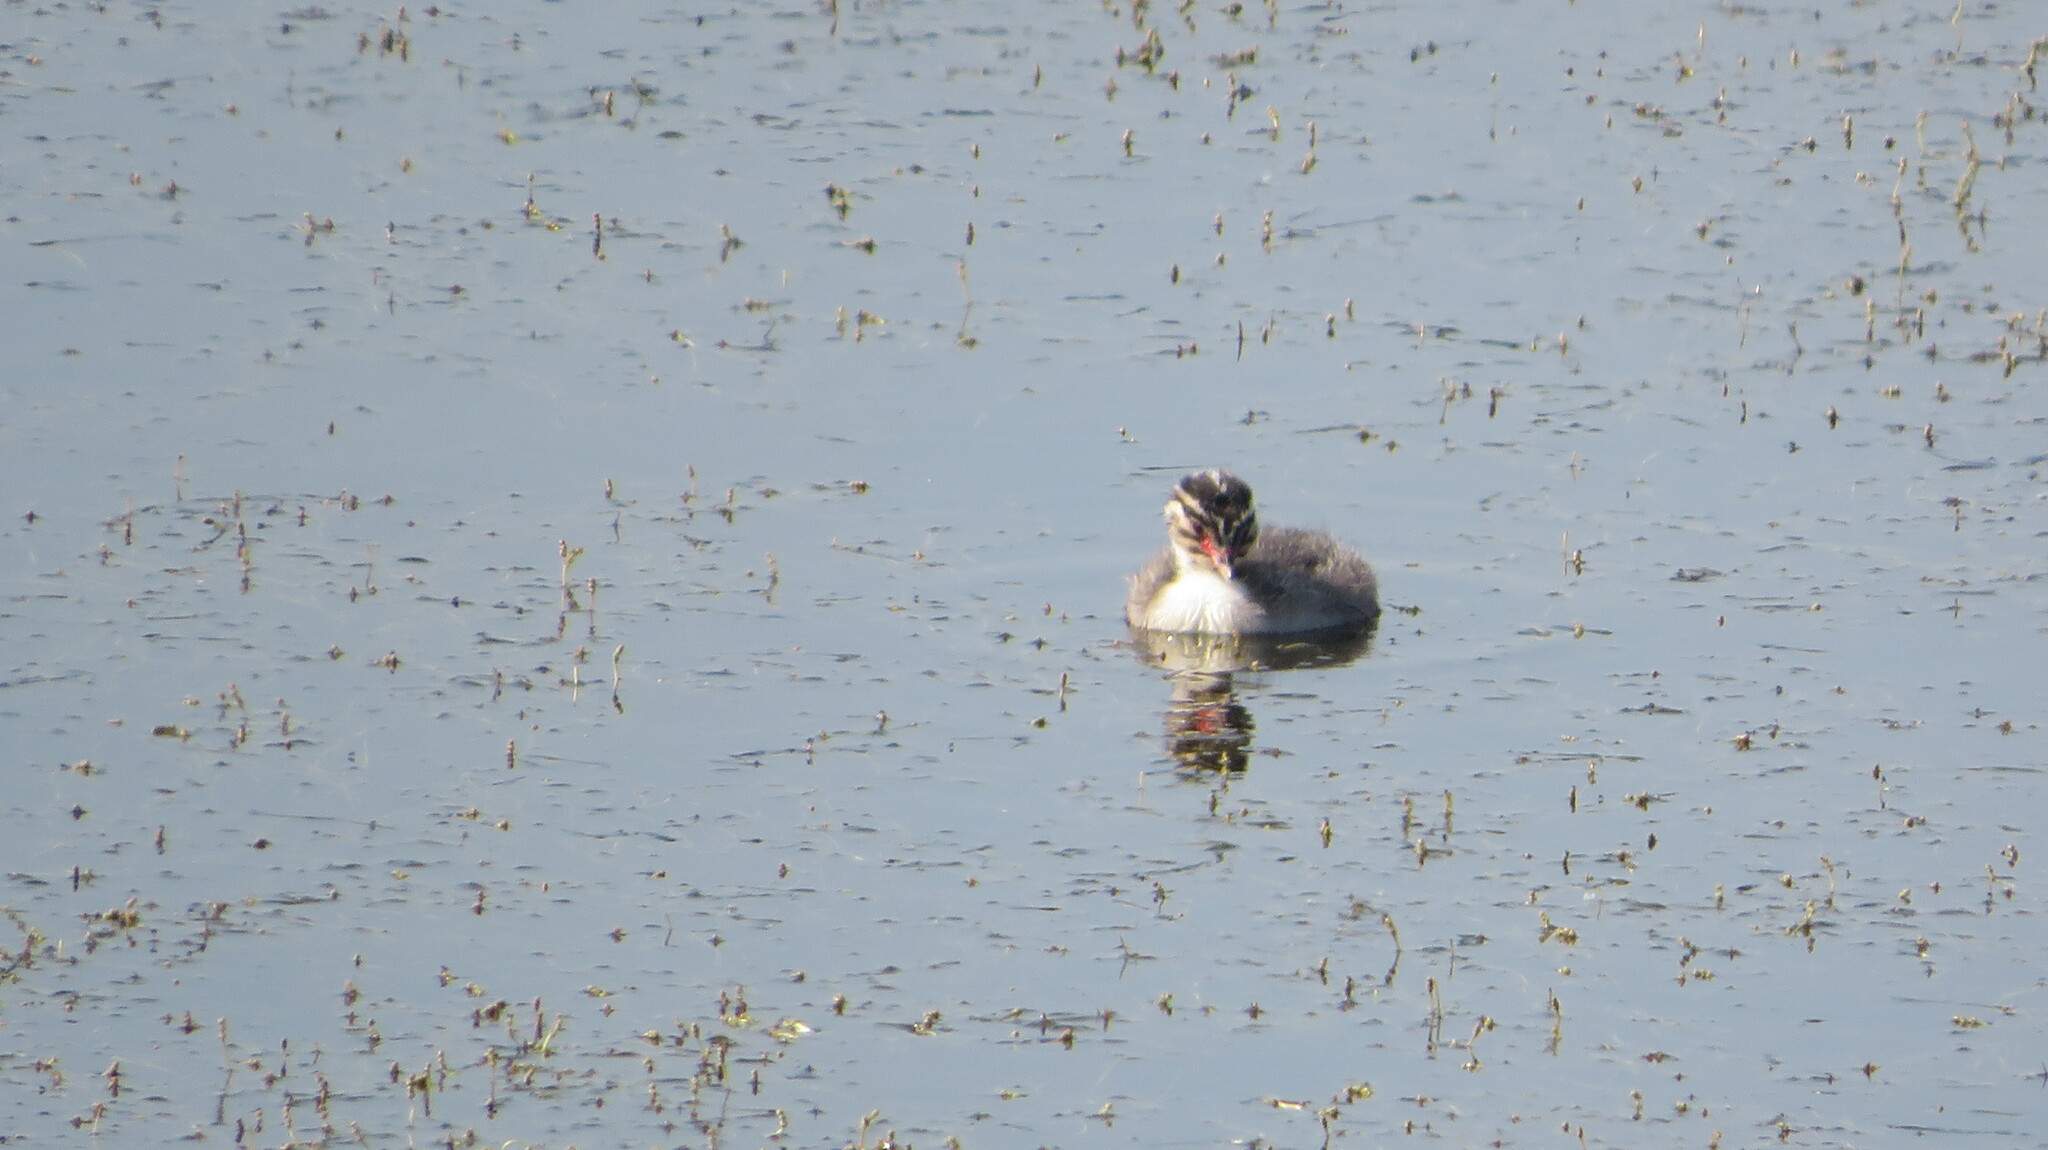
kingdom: Animalia
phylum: Chordata
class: Aves
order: Podicipediformes
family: Podicipedidae
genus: Podiceps
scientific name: Podiceps auritus
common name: Horned grebe
